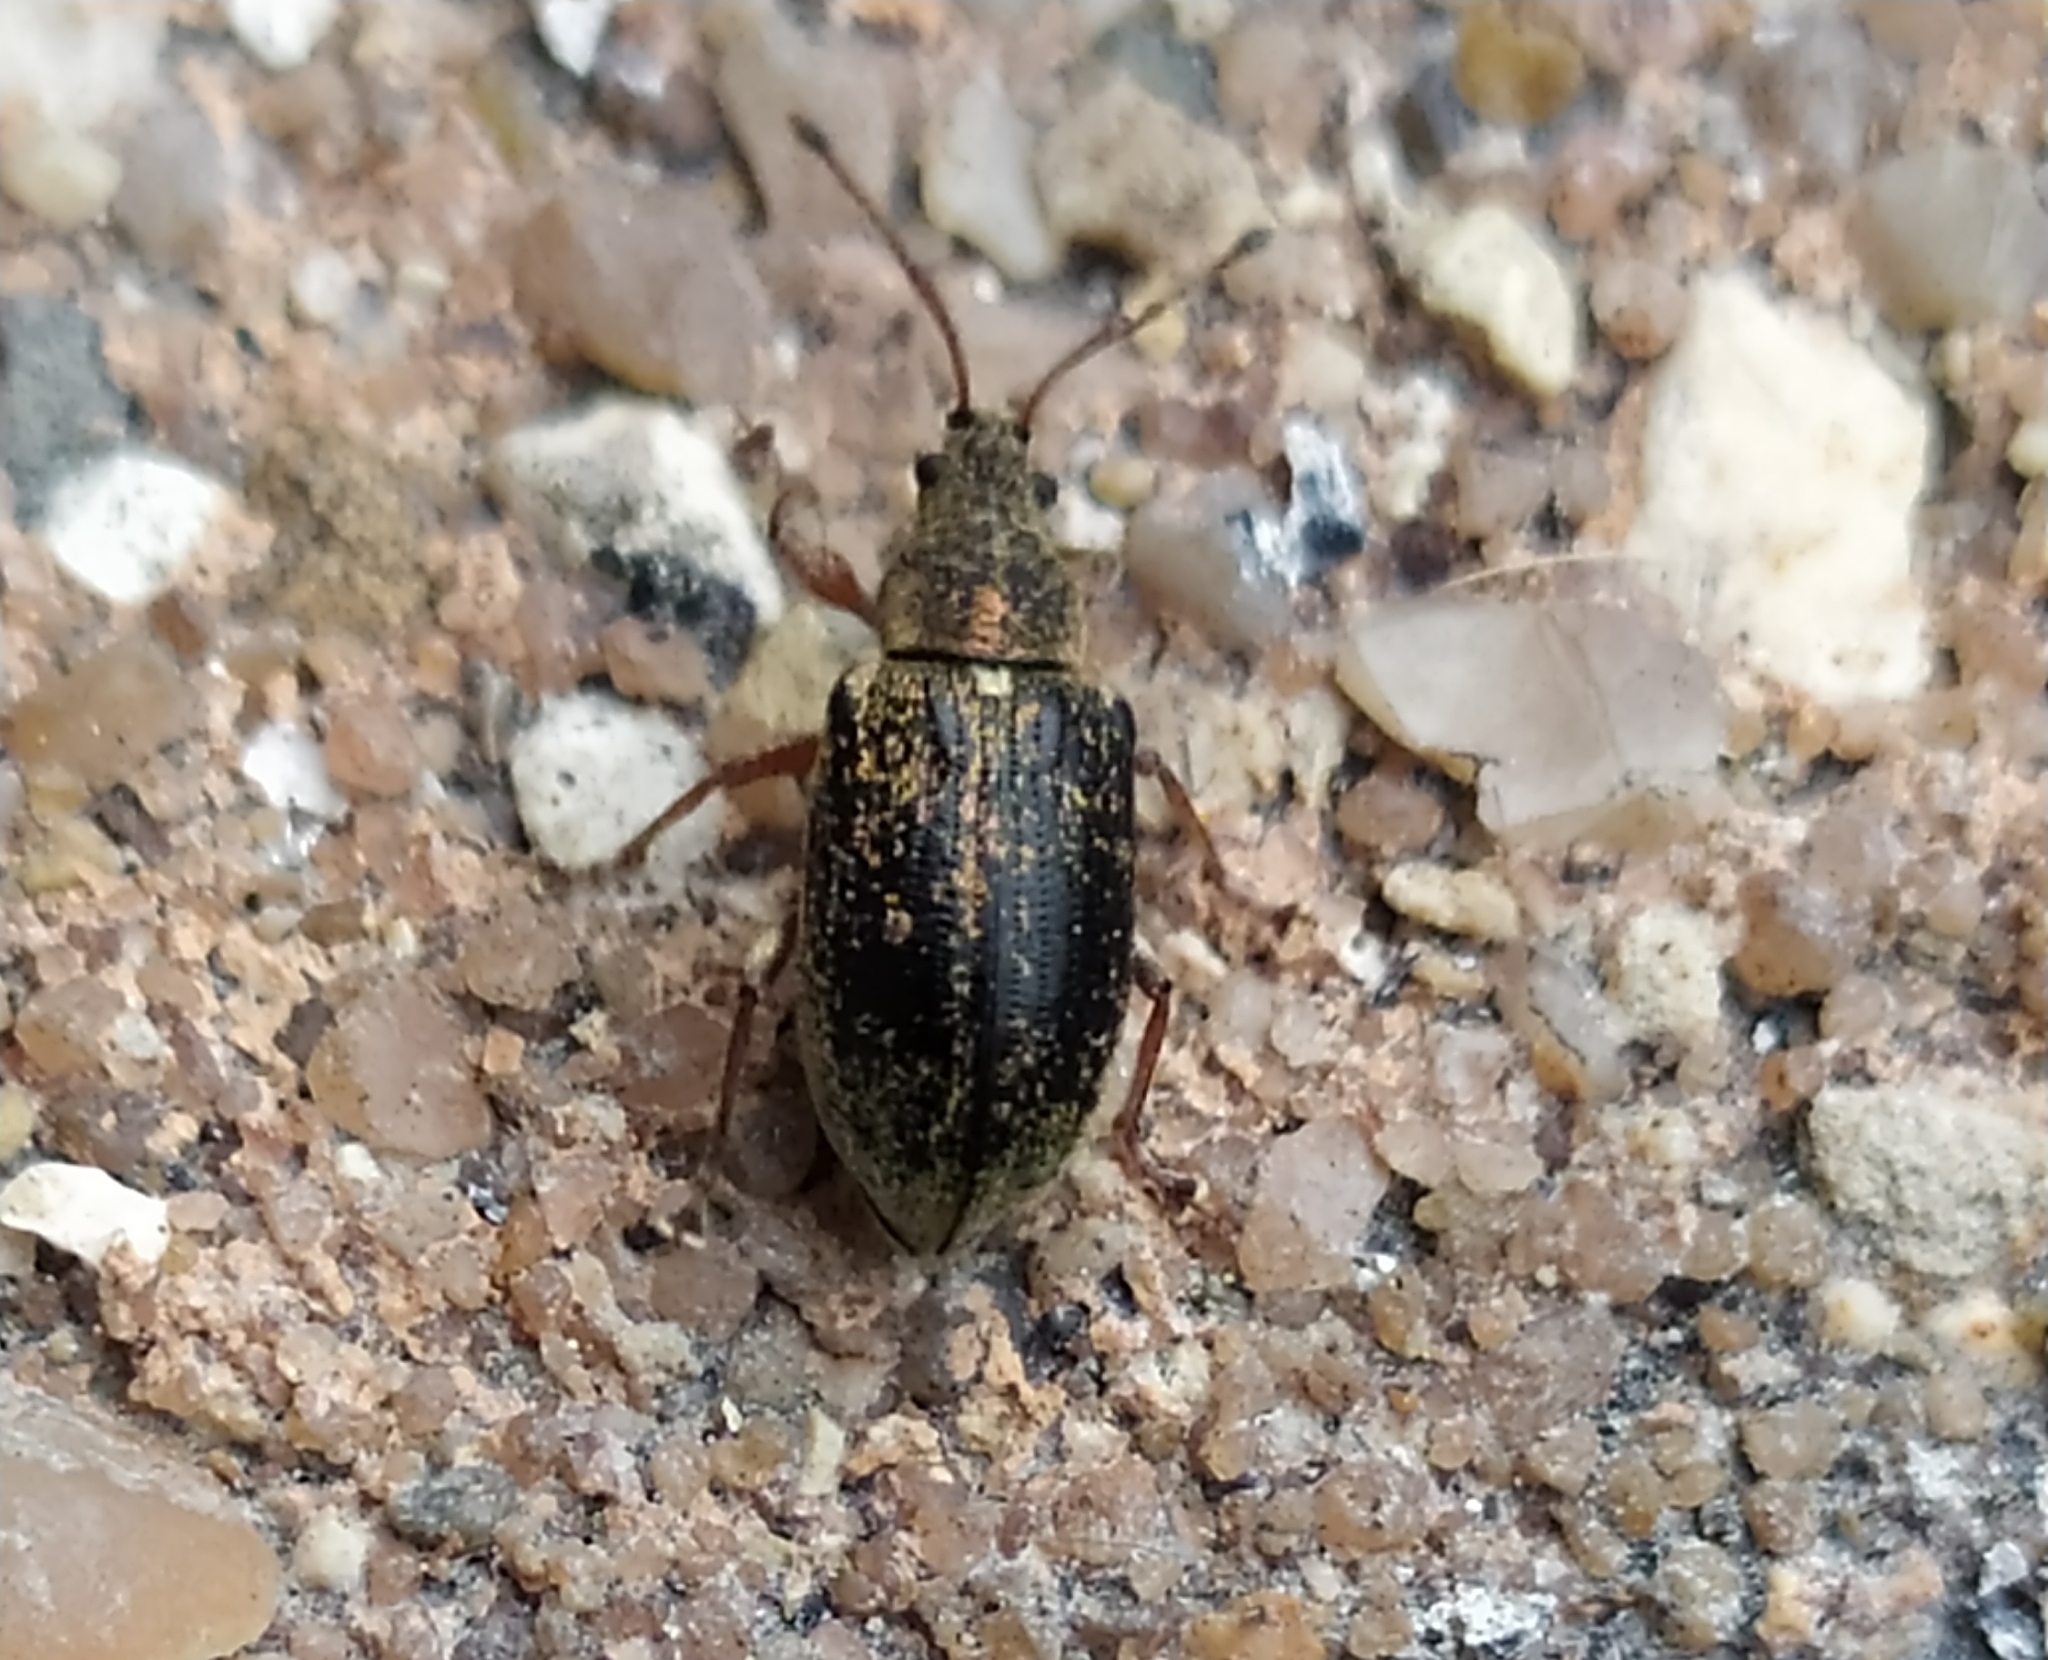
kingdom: Animalia
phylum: Arthropoda
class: Insecta
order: Coleoptera
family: Curculionidae
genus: Phyllobius
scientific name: Phyllobius pyri
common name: Common leaf weevil
